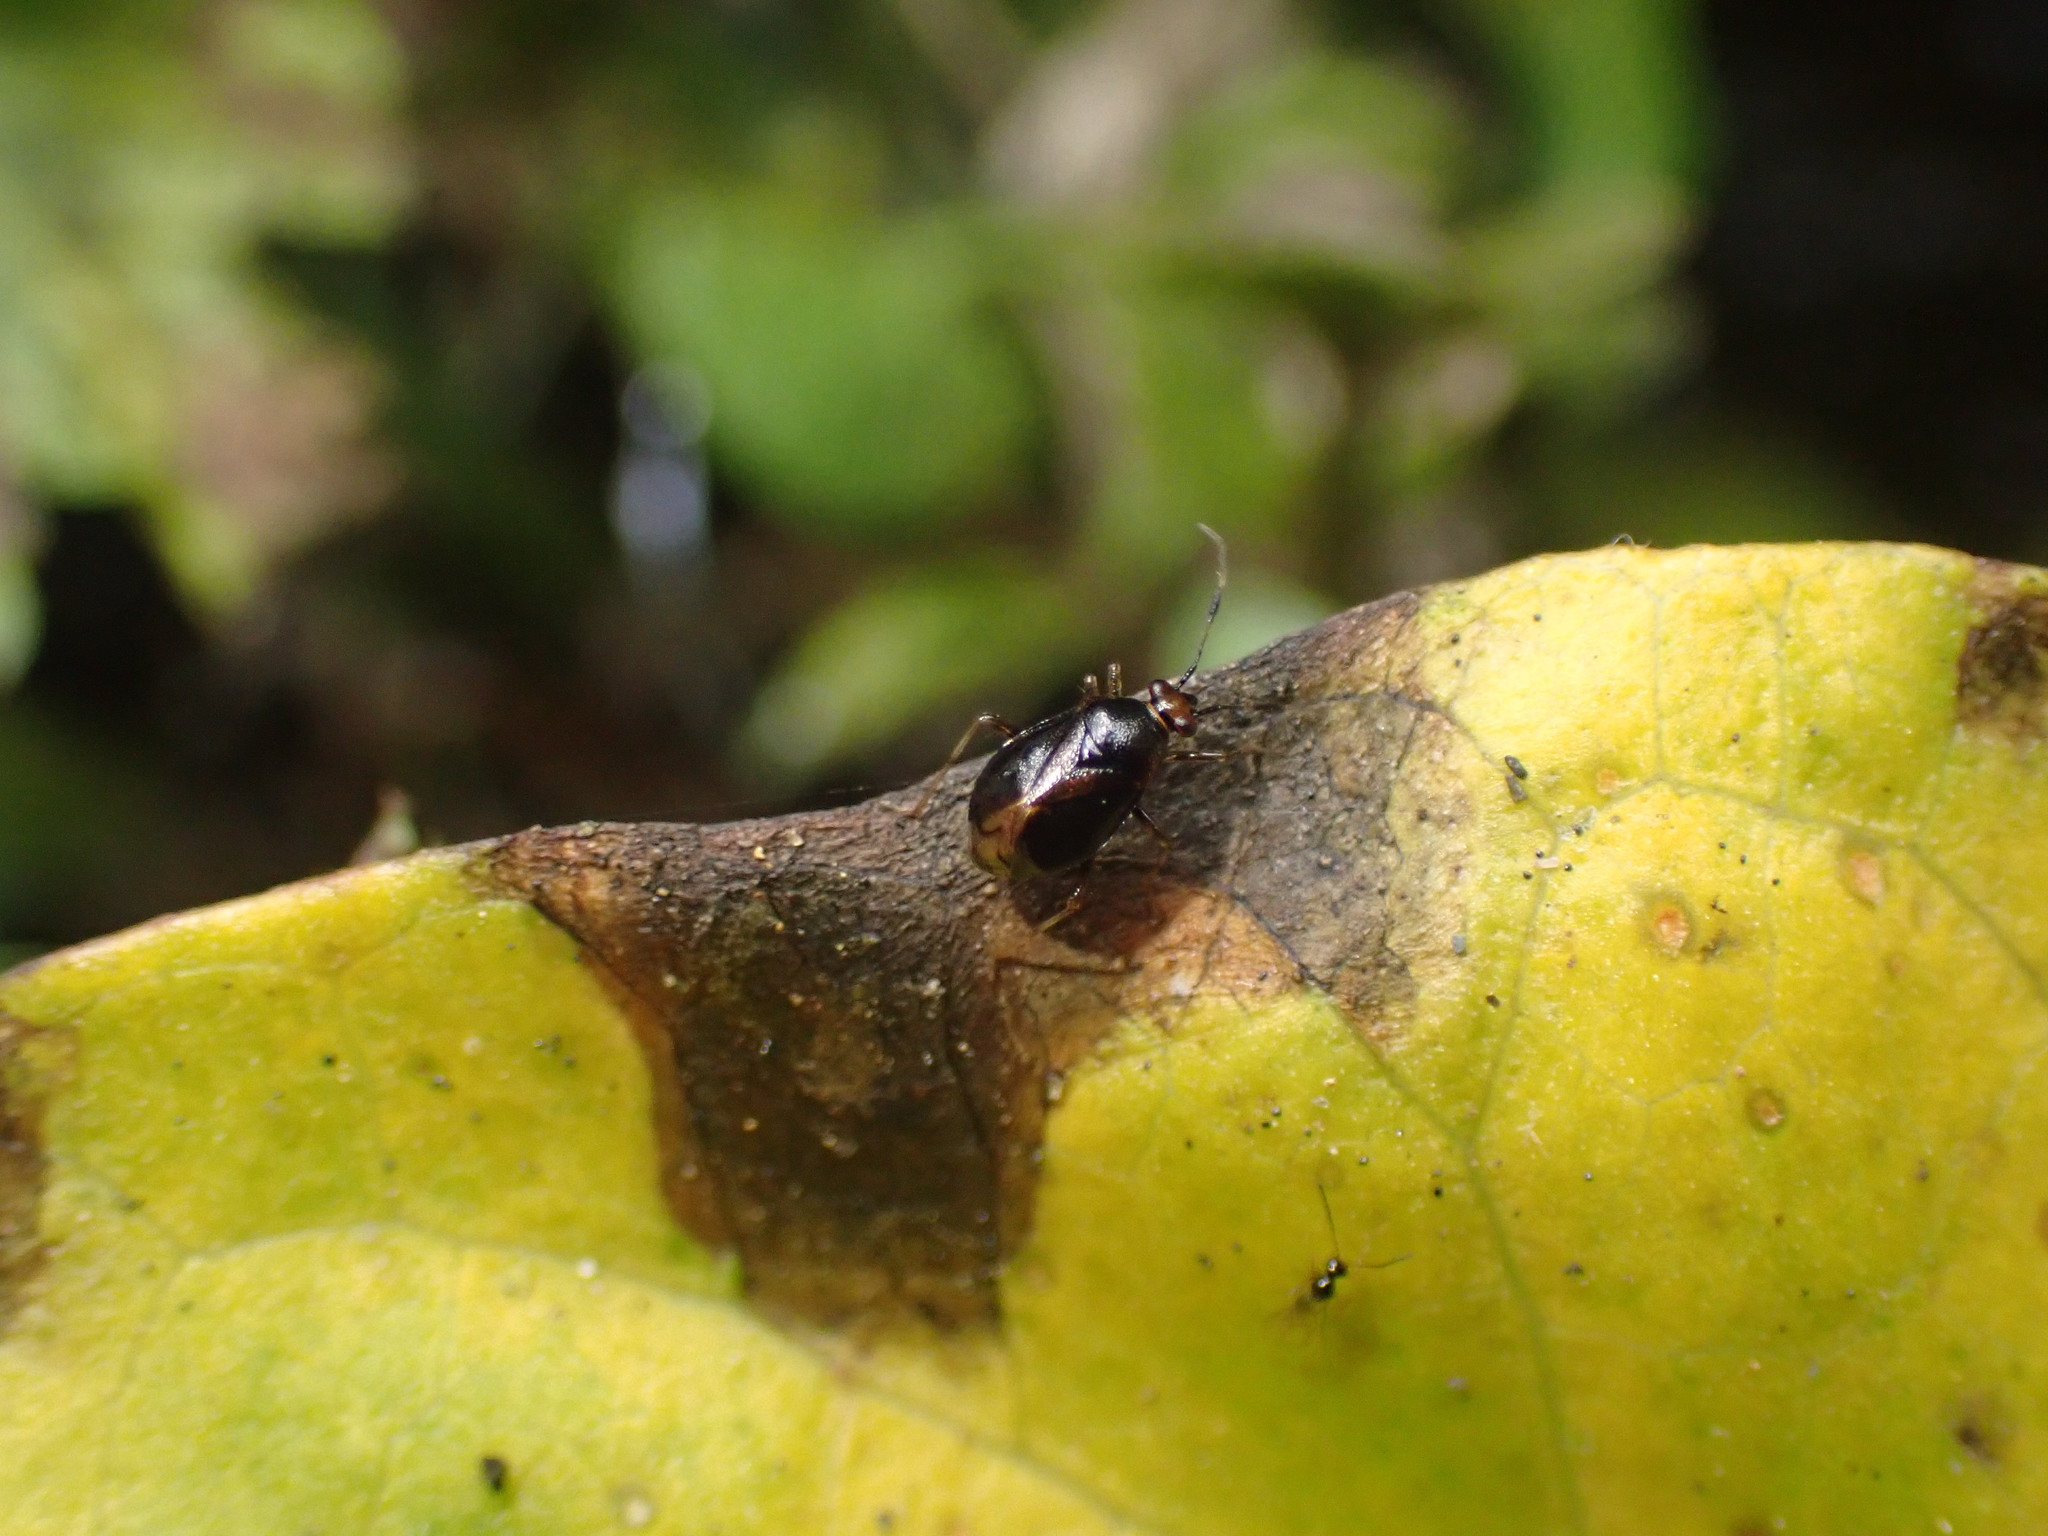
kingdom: Animalia
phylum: Arthropoda
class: Insecta
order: Hemiptera
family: Miridae
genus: Deraeocoris
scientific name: Deraeocoris maoricus
